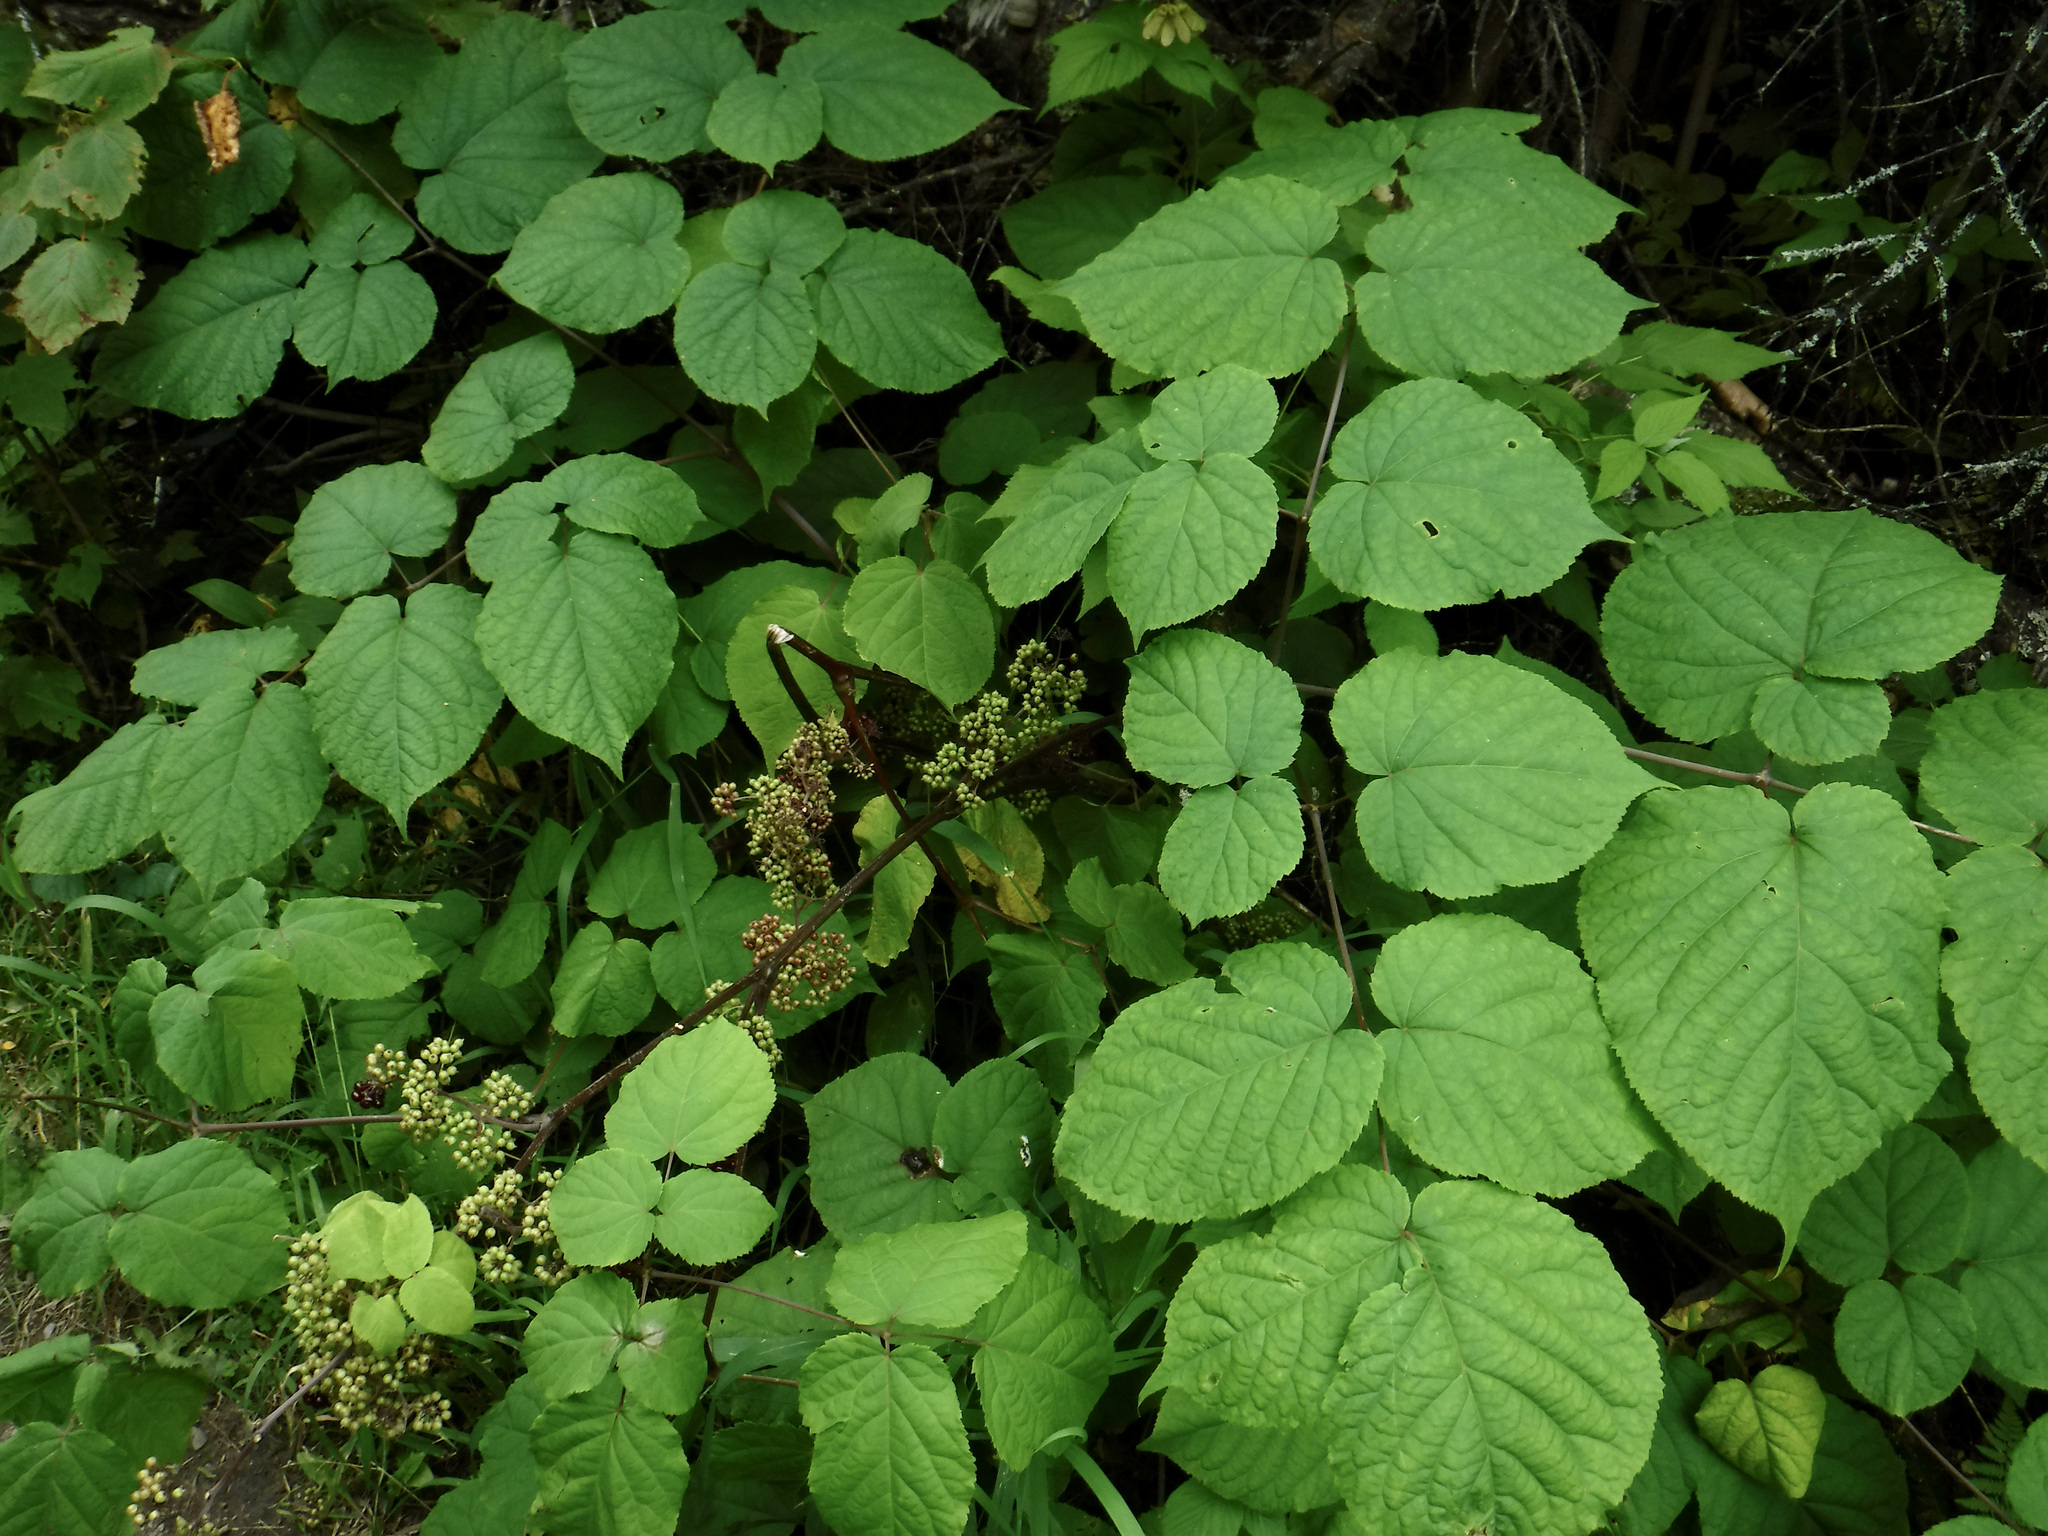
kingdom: Plantae
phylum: Tracheophyta
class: Magnoliopsida
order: Apiales
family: Araliaceae
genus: Aralia
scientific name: Aralia racemosa
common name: American-spikenard
